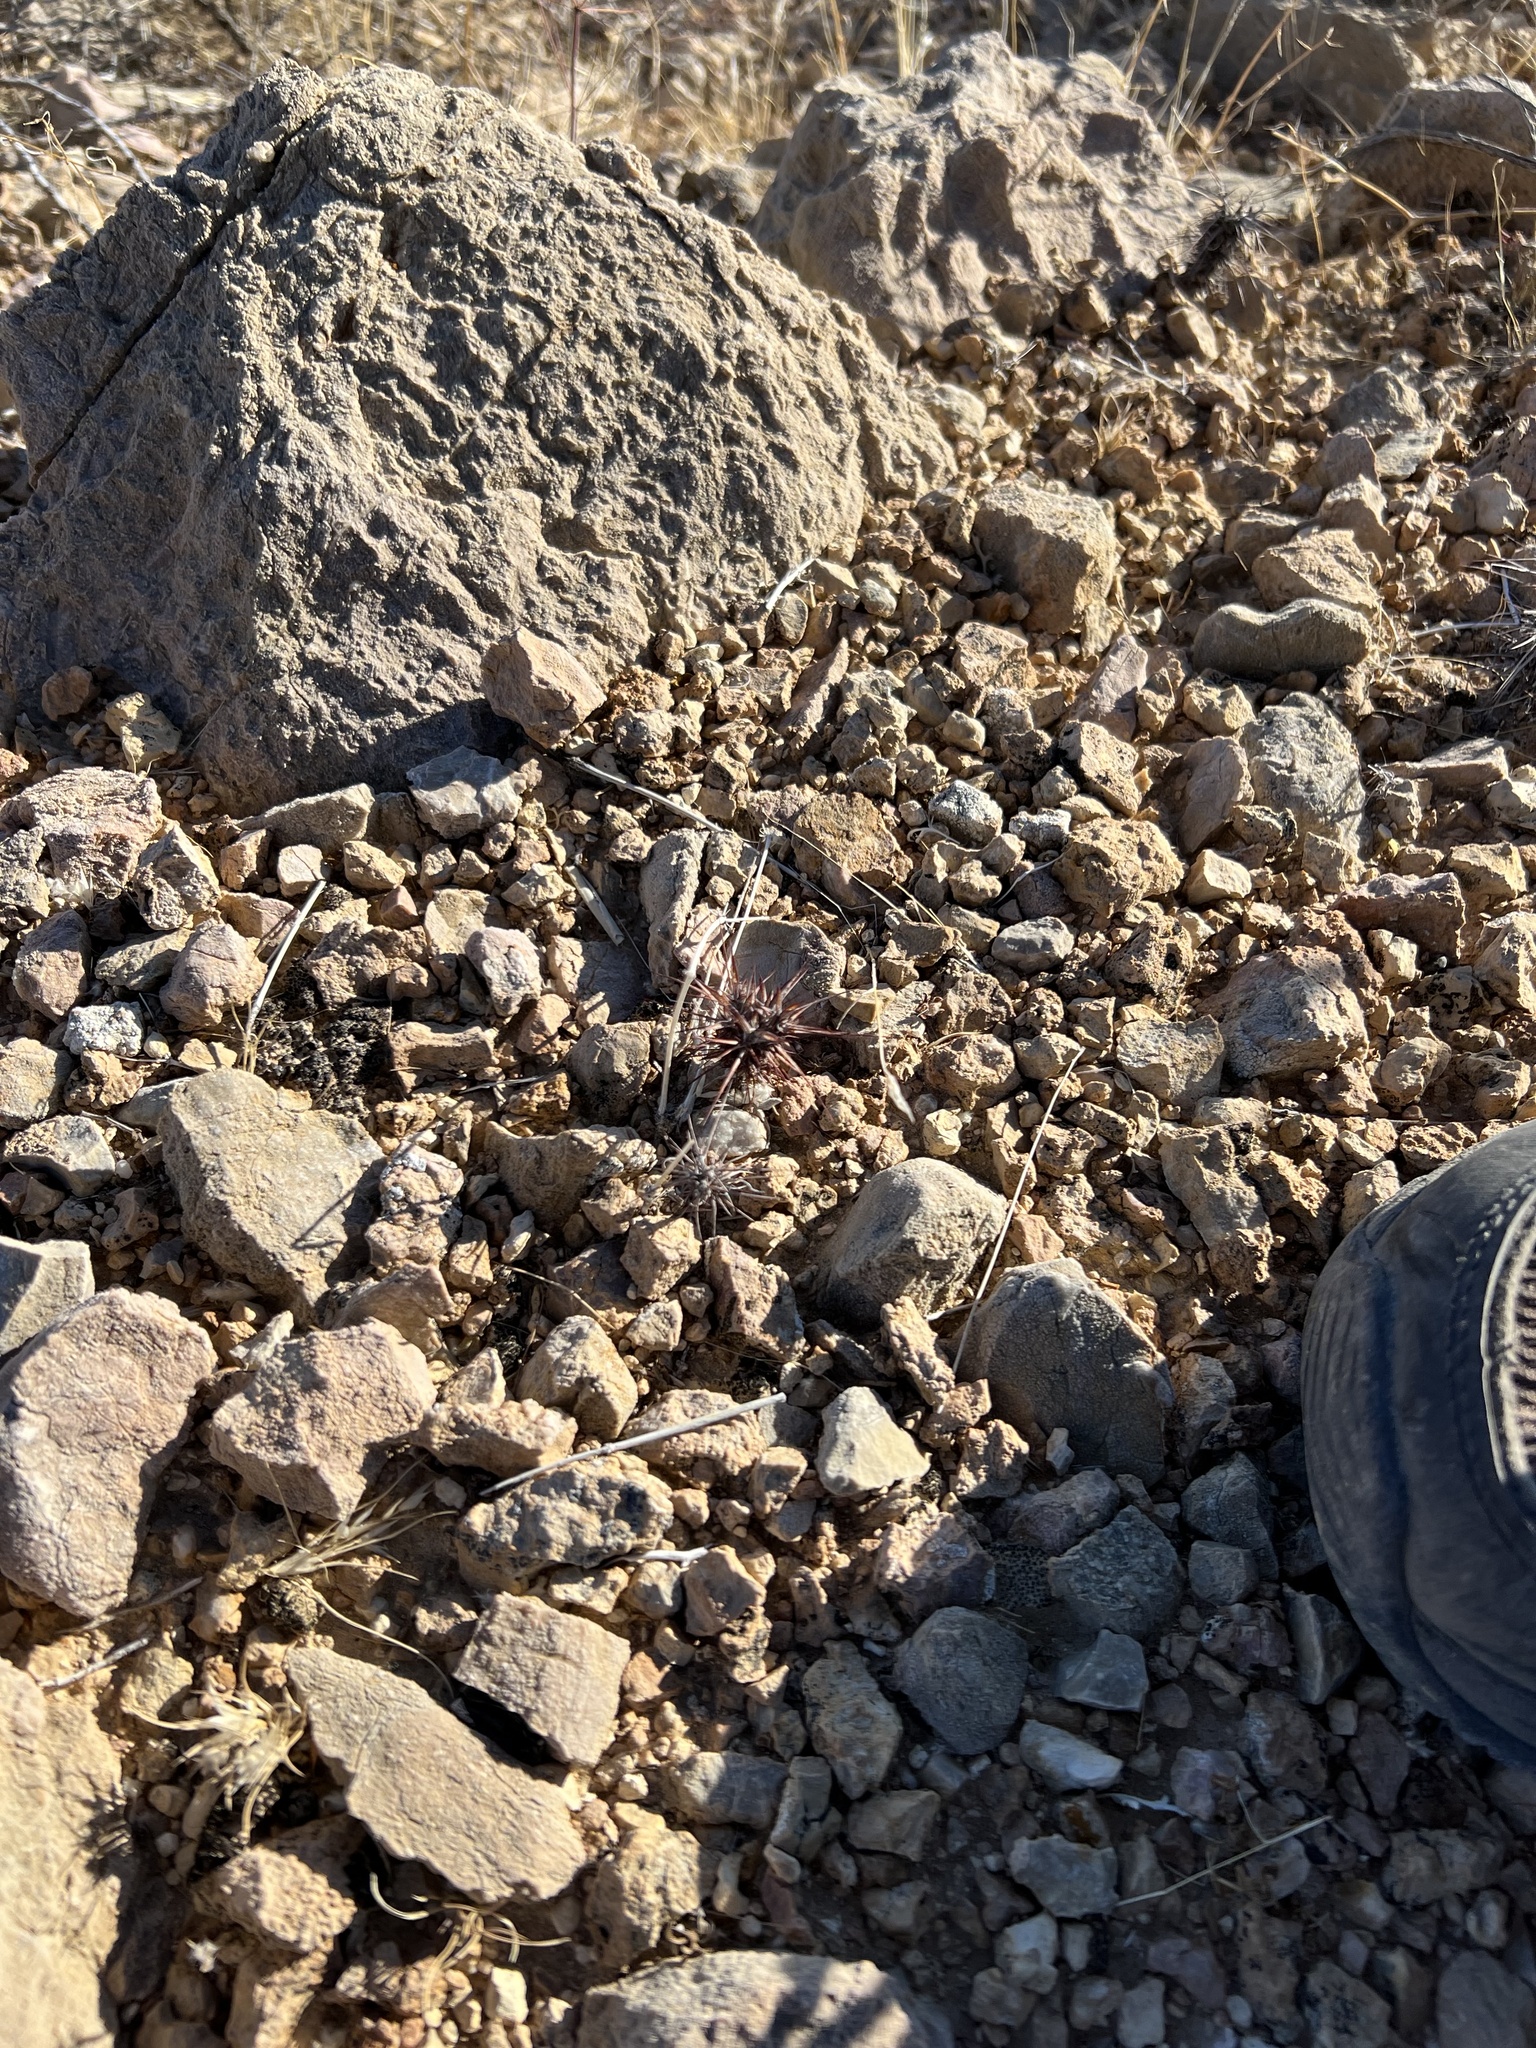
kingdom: Plantae
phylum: Tracheophyta
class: Magnoliopsida
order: Caryophyllales
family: Polygonaceae
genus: Chorizanthe
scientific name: Chorizanthe rigida
